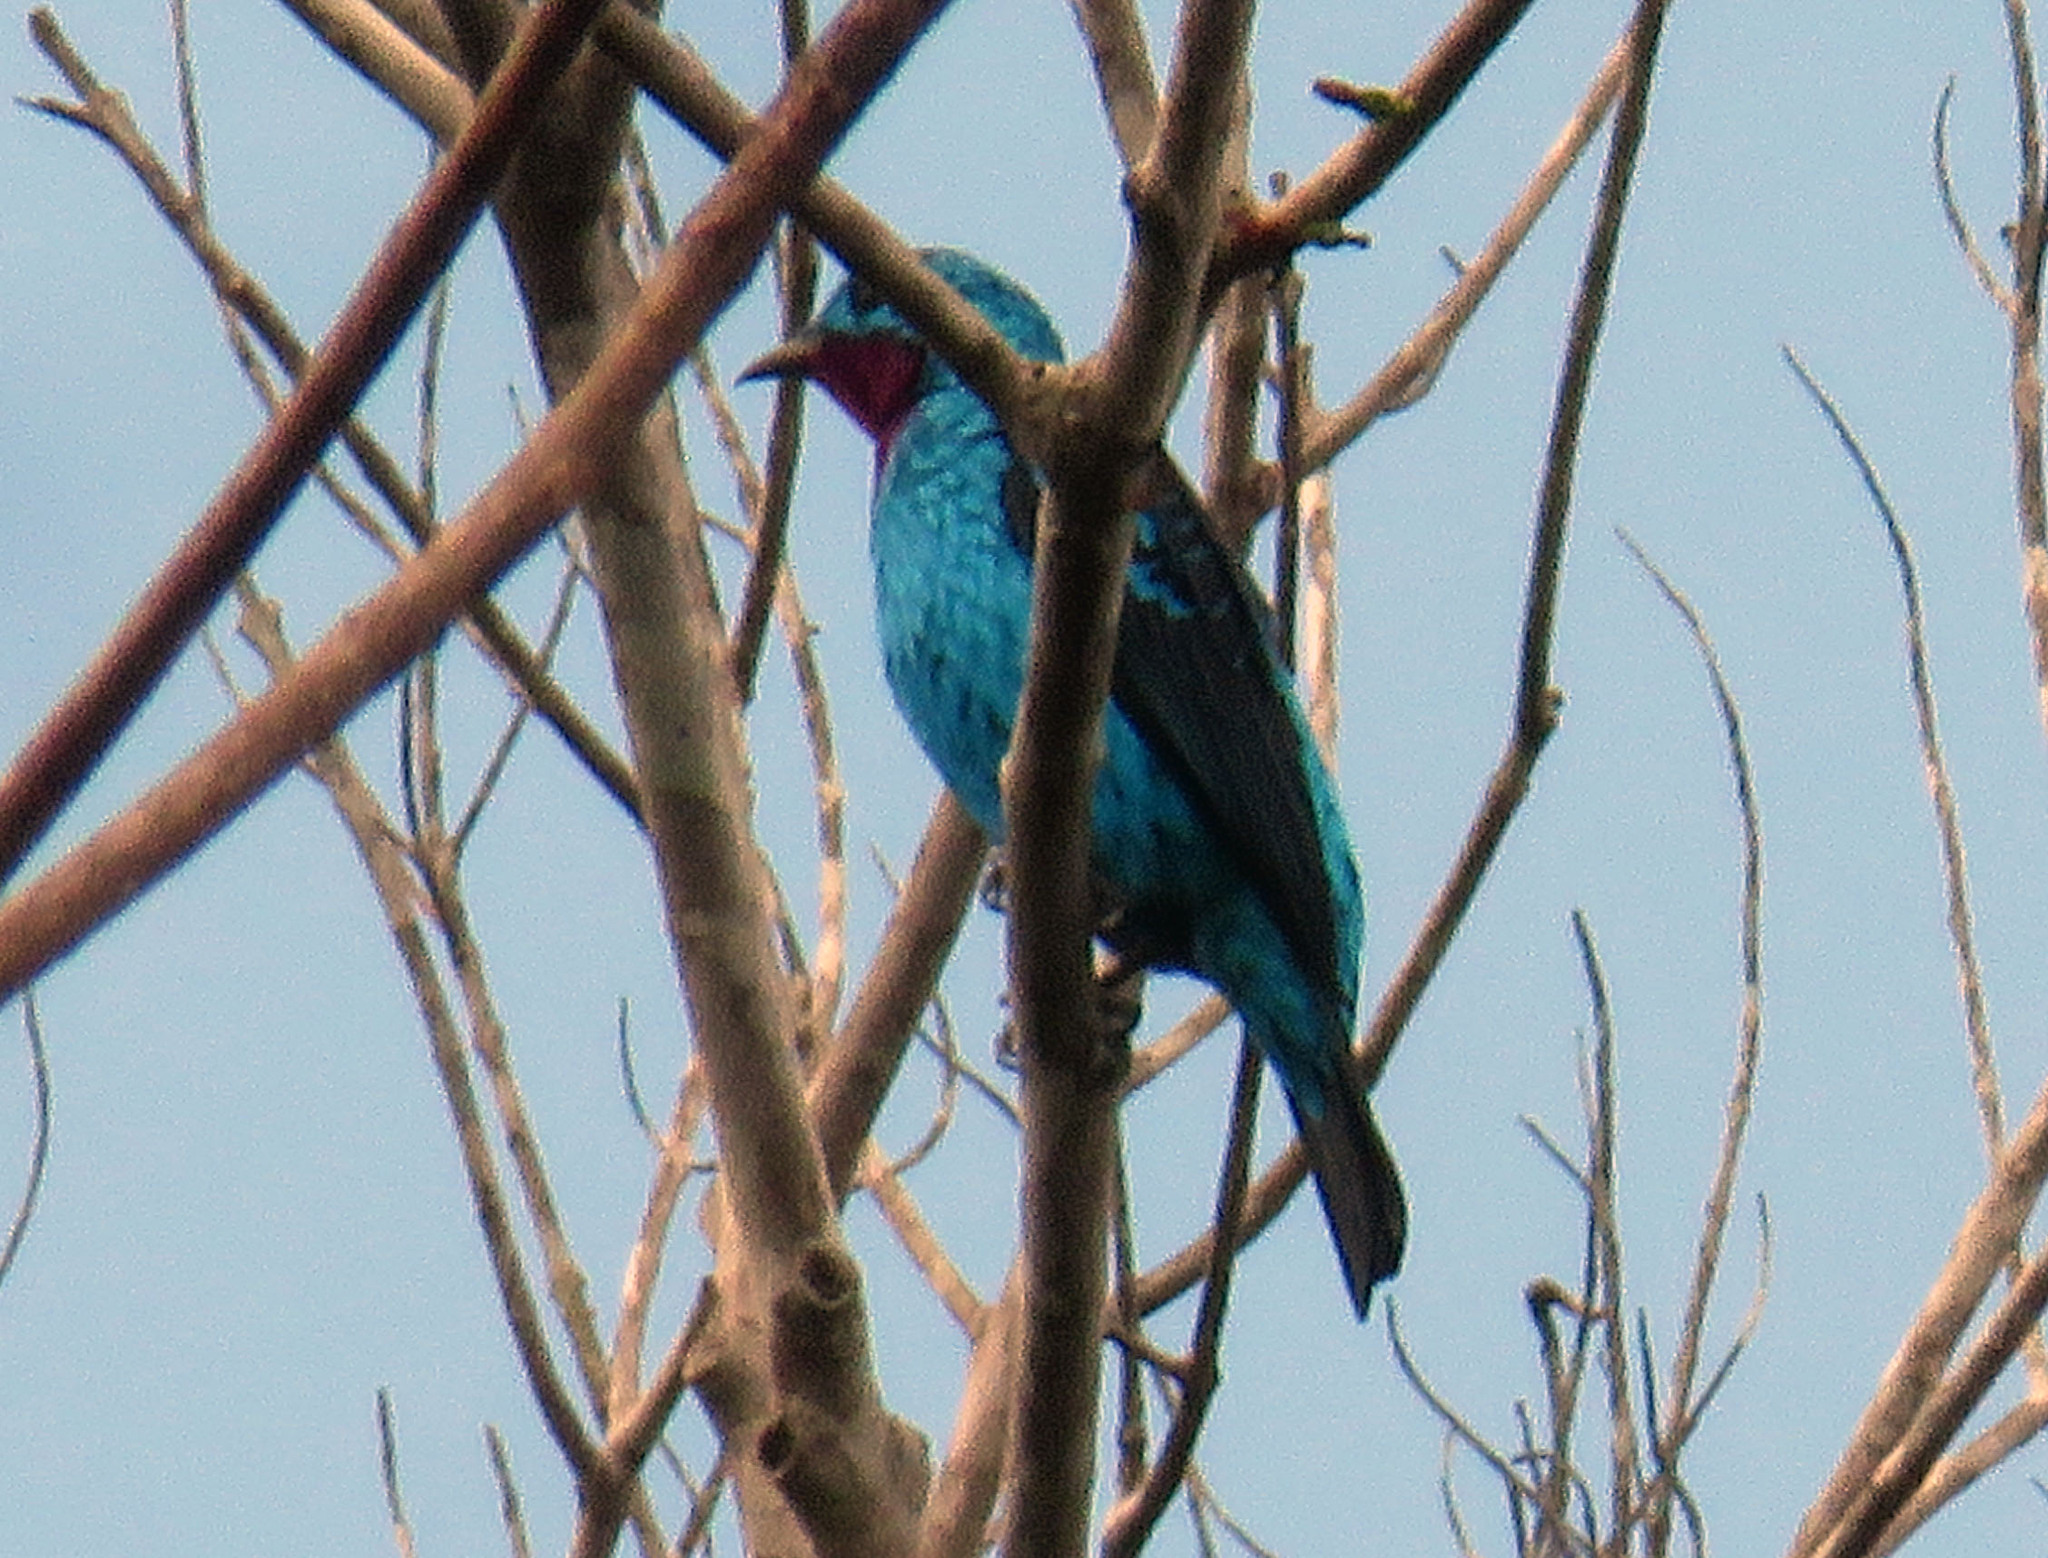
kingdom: Animalia
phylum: Chordata
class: Aves
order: Passeriformes
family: Cotingidae
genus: Cotinga
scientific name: Cotinga cayana
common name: Spangled cotinga
